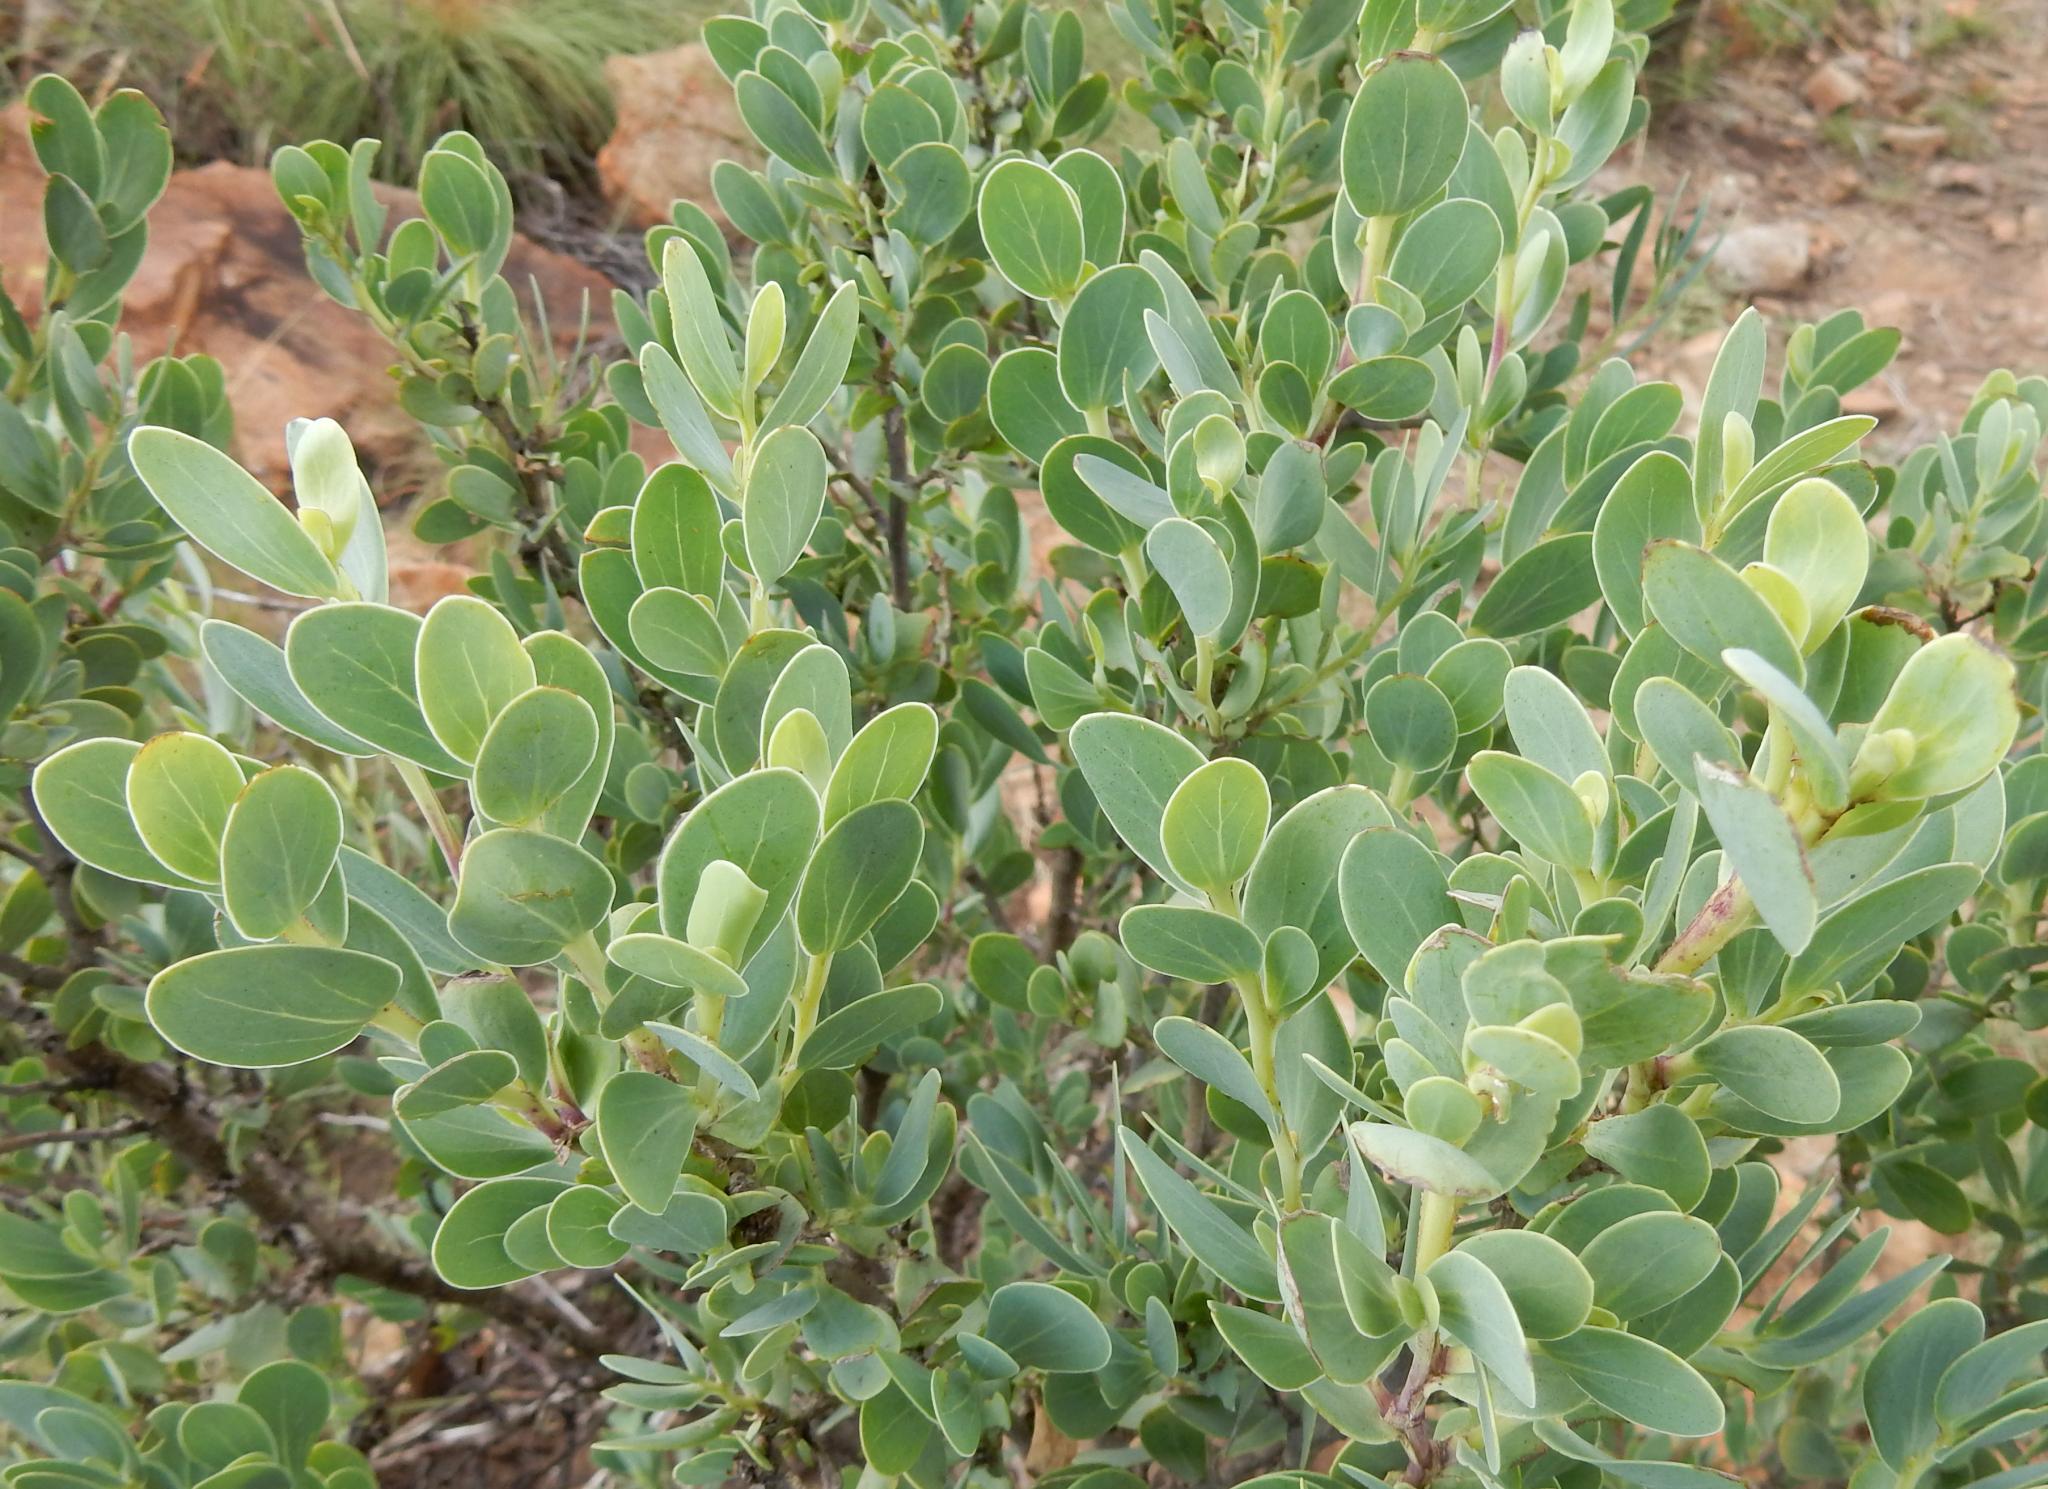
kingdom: Plantae
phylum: Tracheophyta
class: Magnoliopsida
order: Asterales
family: Asteraceae
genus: Lopholaena
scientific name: Lopholaena coriifolia
